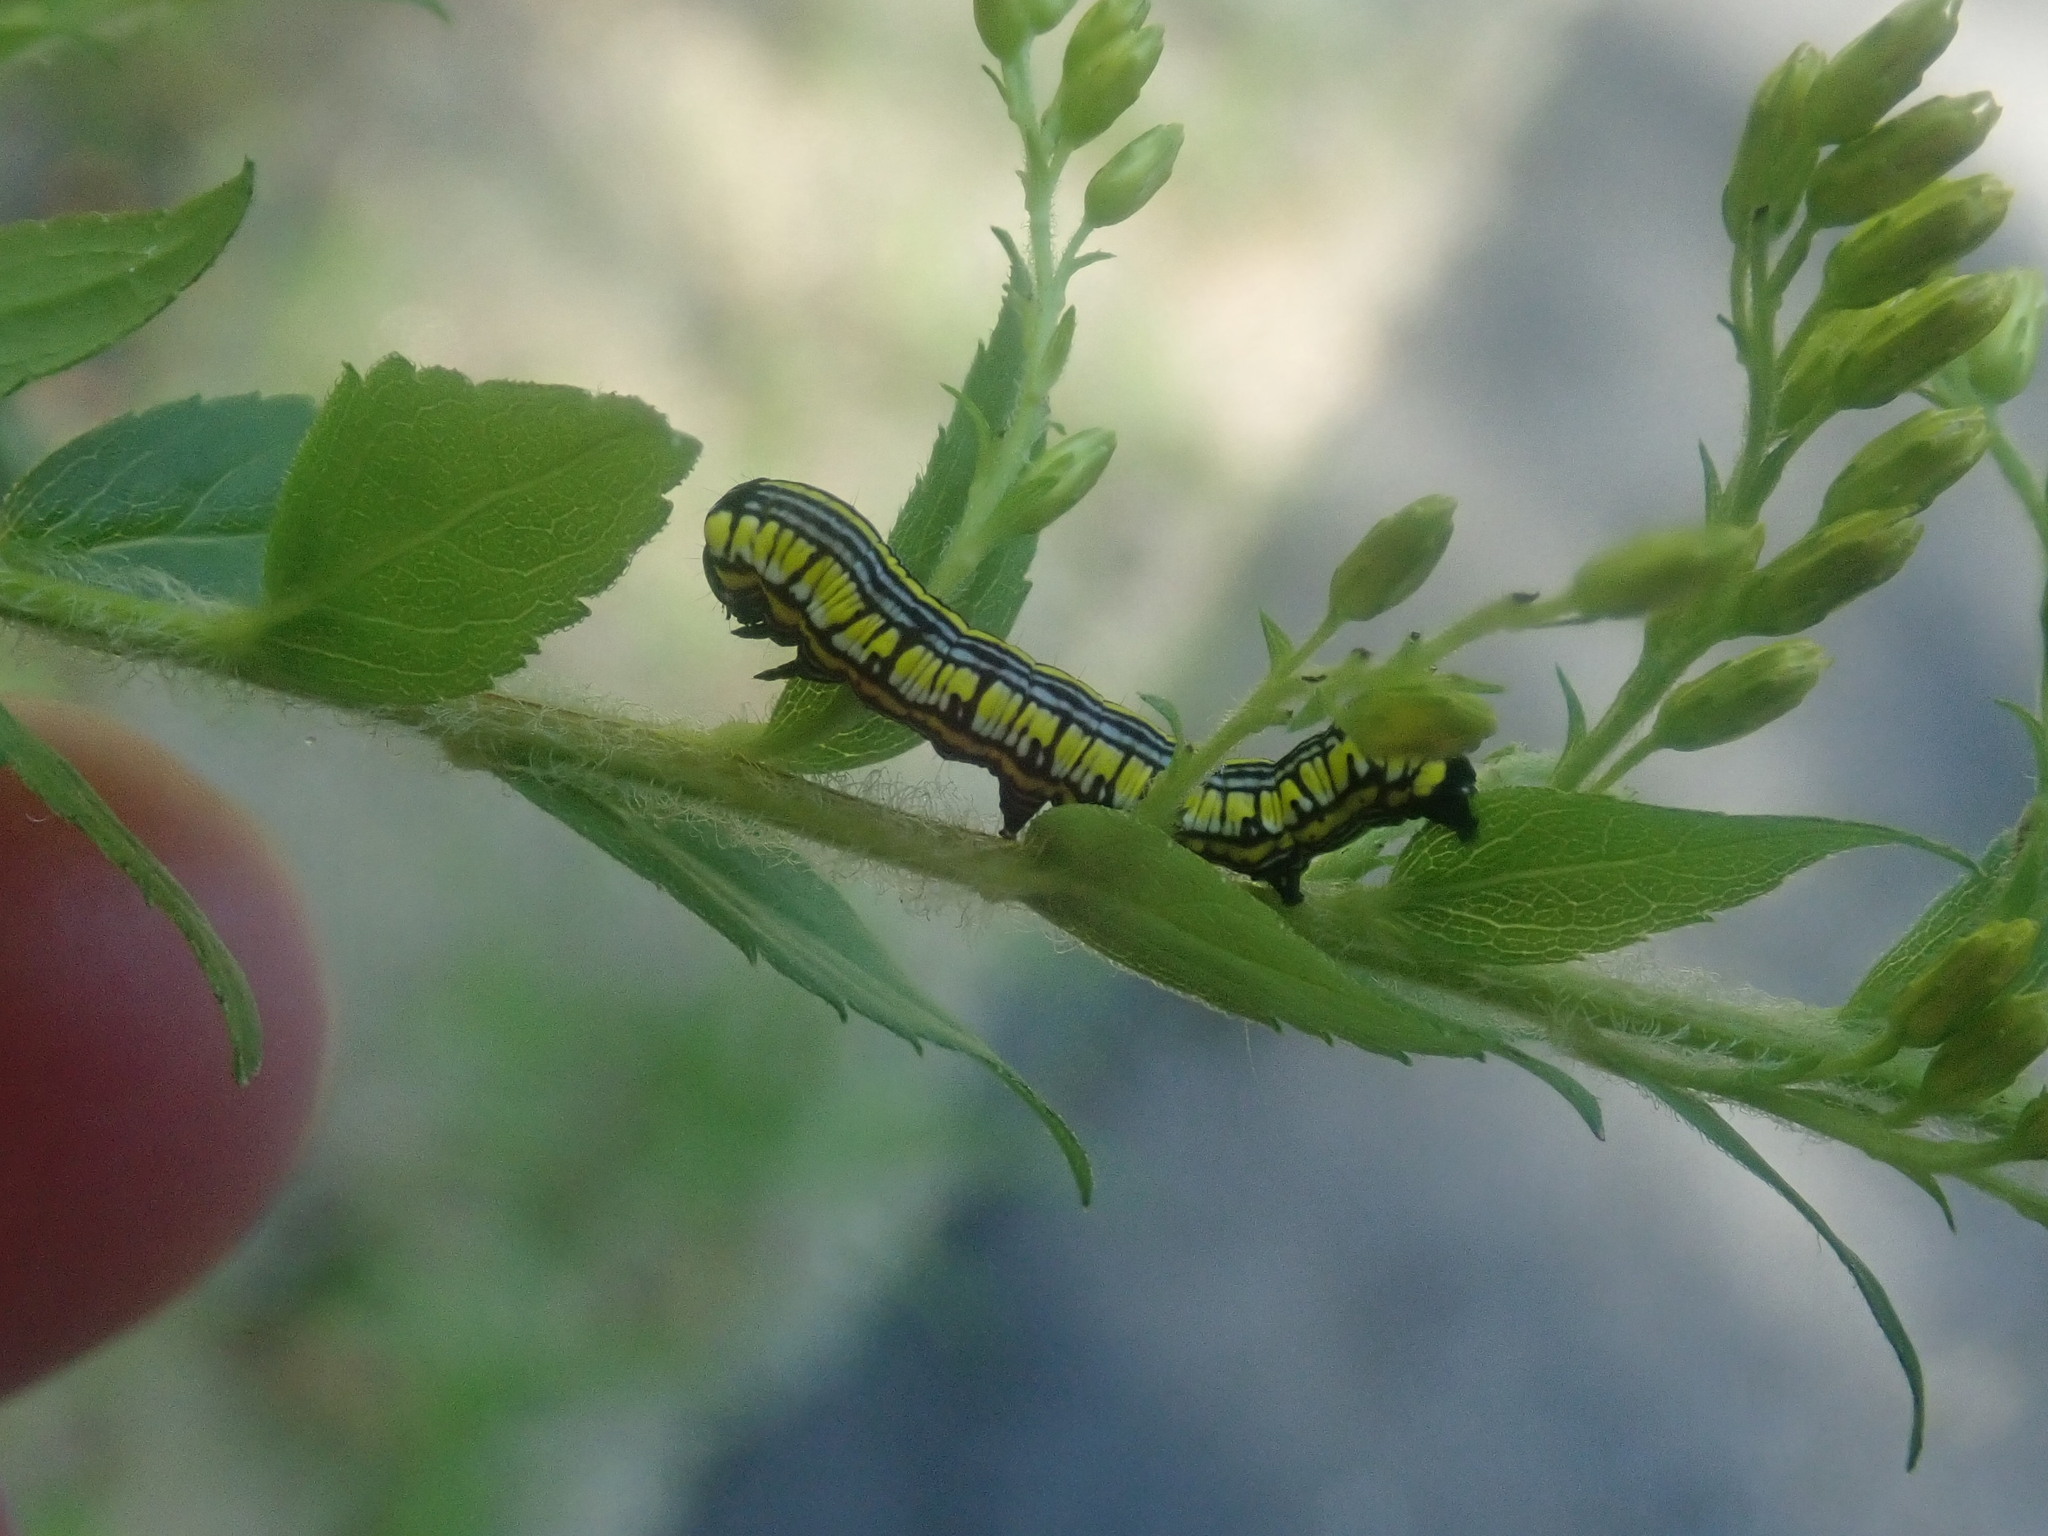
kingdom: Animalia
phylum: Arthropoda
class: Insecta
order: Lepidoptera
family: Noctuidae
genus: Cucullia
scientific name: Cucullia convexipennis
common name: Brown-hooded owlet
